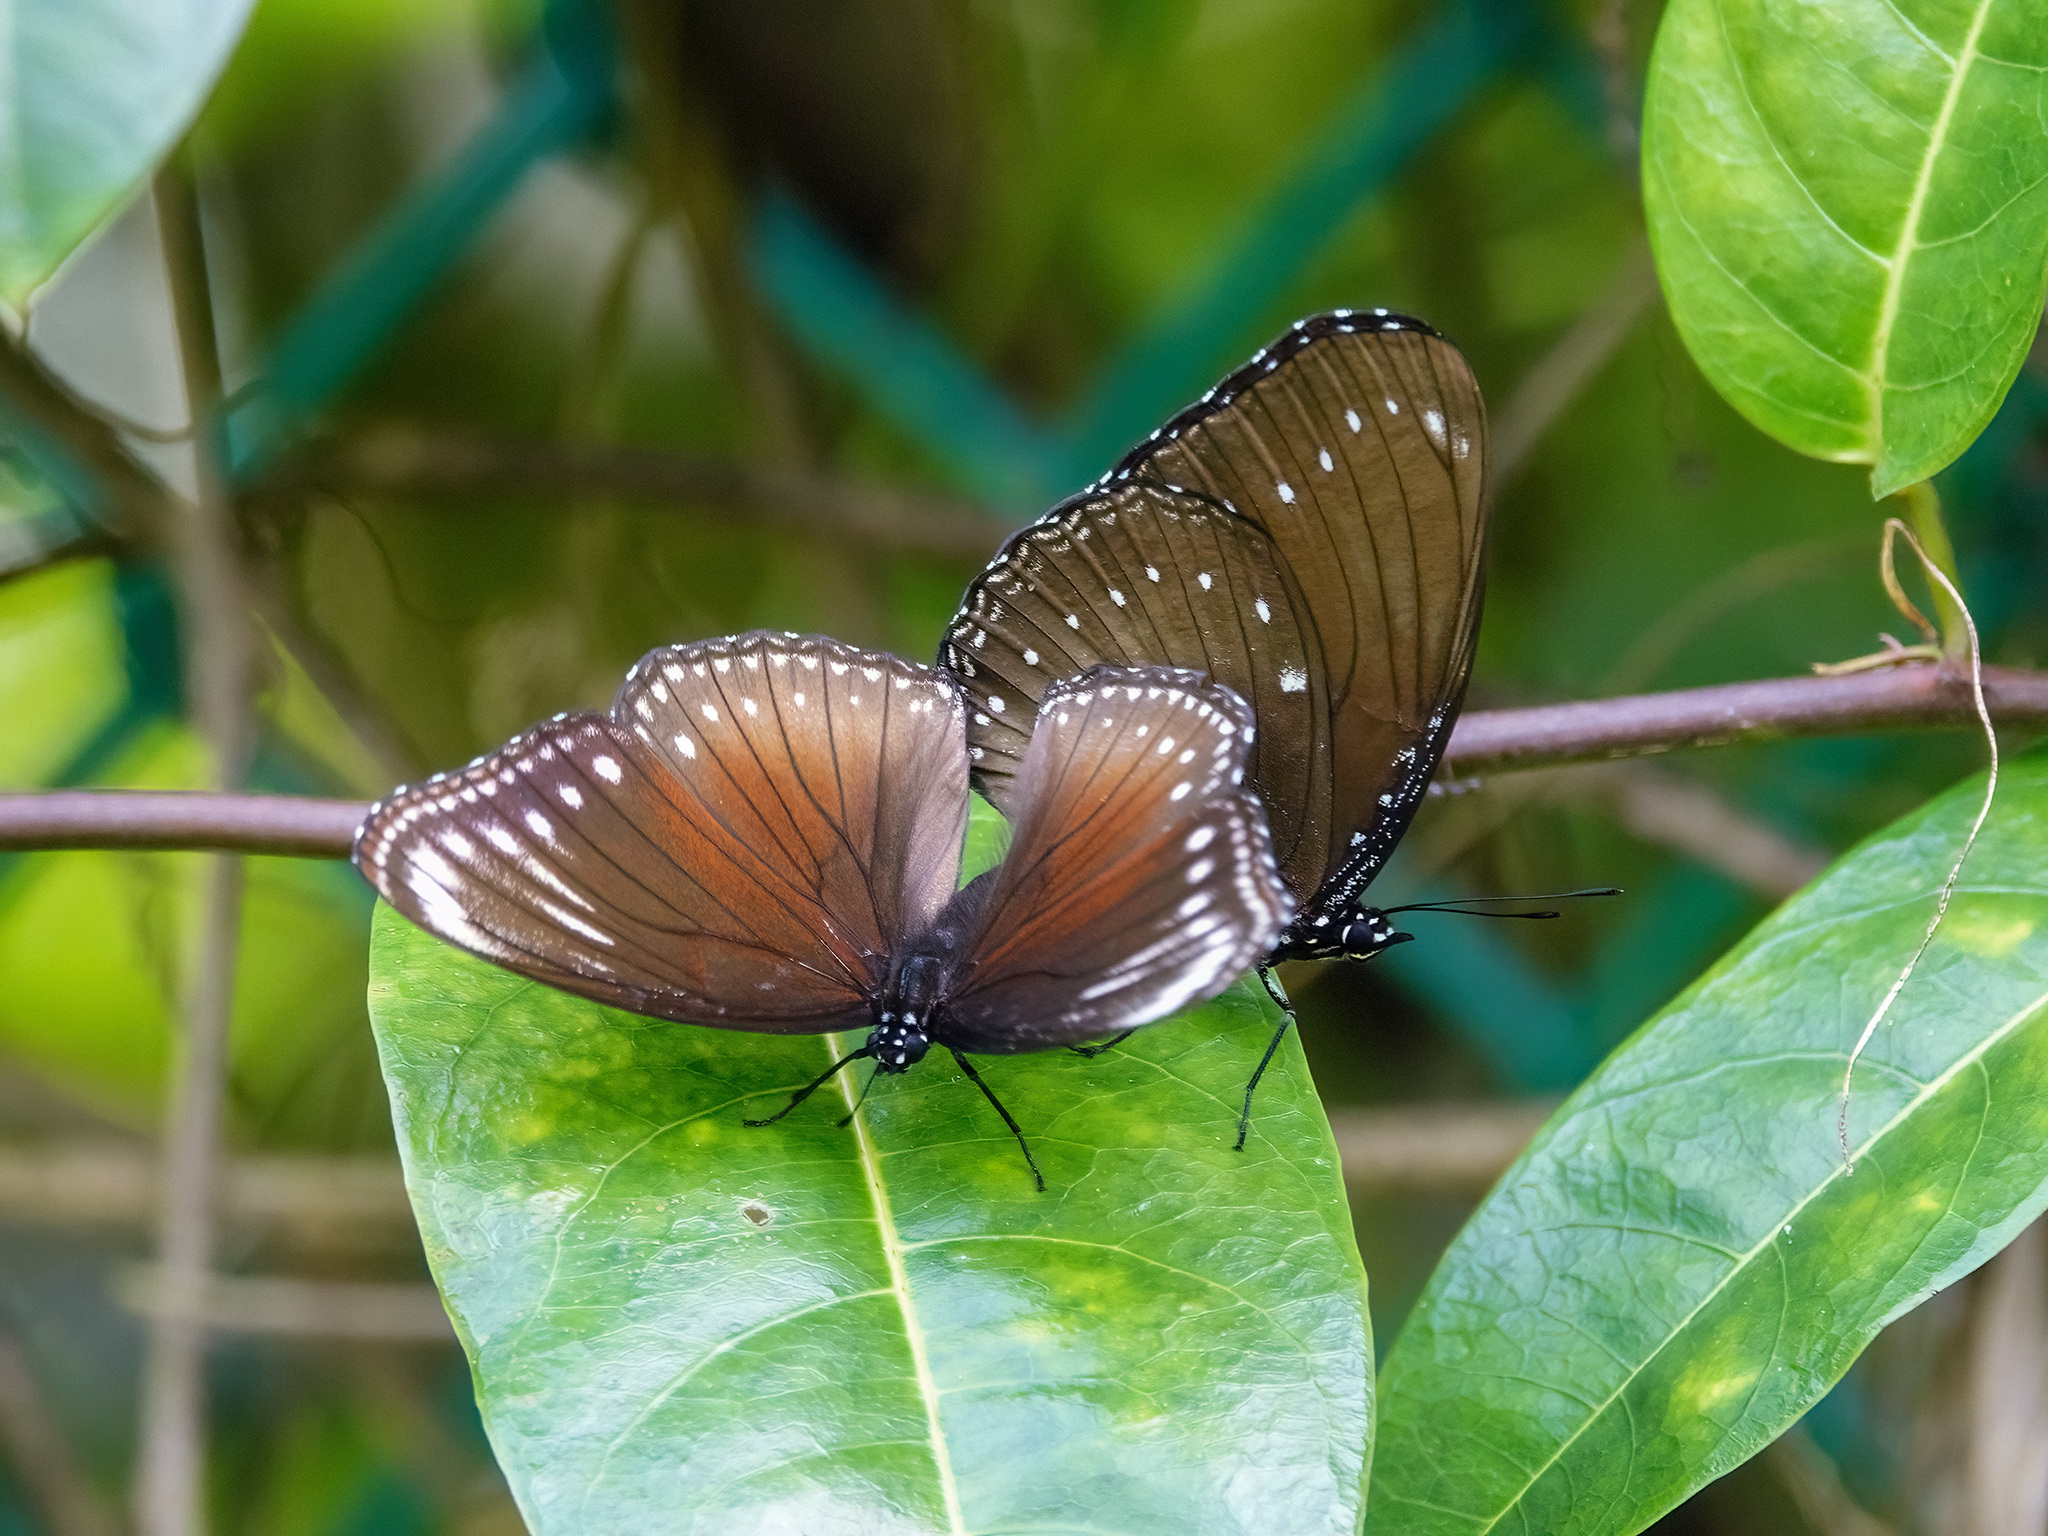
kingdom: Animalia
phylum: Arthropoda
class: Insecta
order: Lepidoptera
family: Nymphalidae
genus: Hypolimnas
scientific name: Hypolimnas anomala
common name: Malayan eggfly
